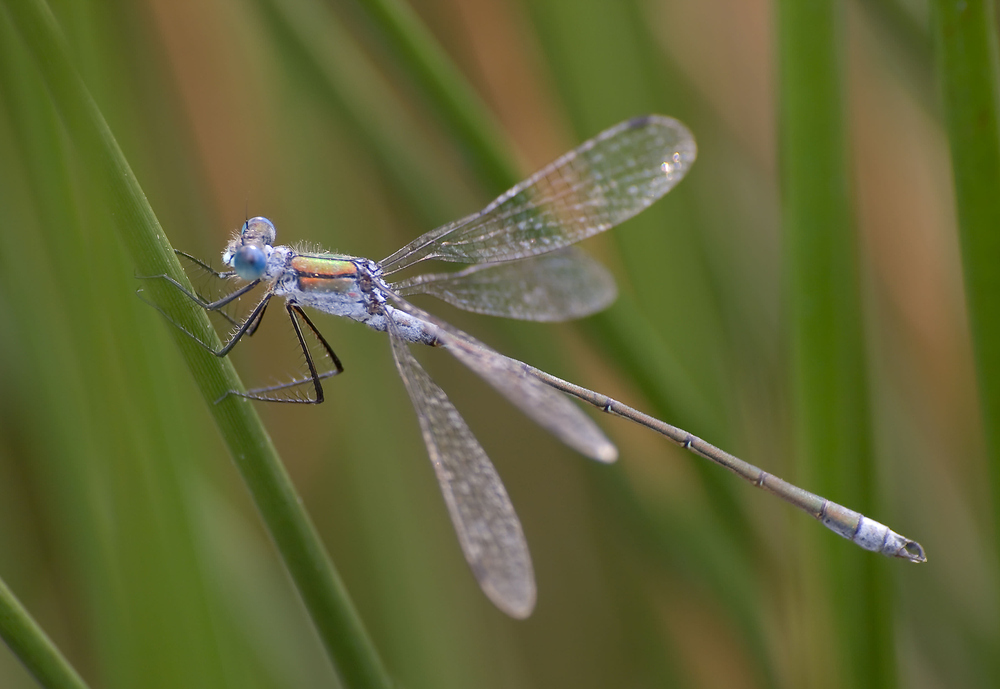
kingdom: Animalia
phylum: Arthropoda
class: Insecta
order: Odonata
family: Lestidae
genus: Lestes
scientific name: Lestes sponsa
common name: Common spreadwing
